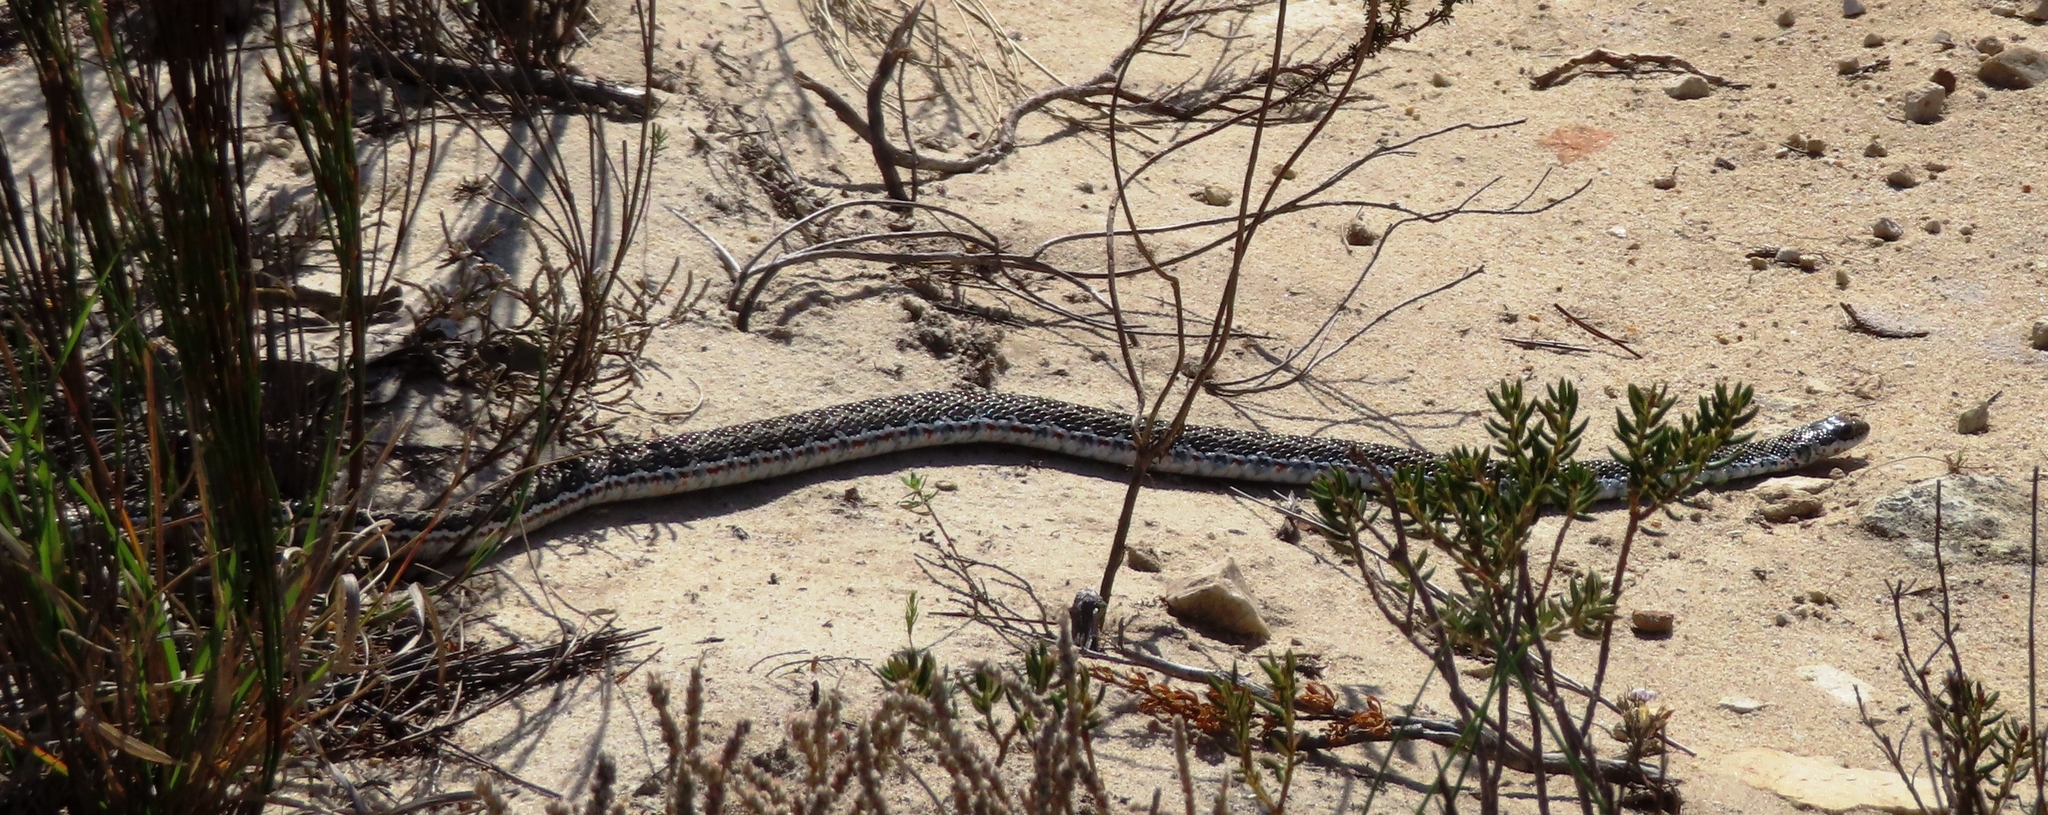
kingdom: Animalia
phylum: Chordata
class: Squamata
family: Psammophiidae
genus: Psammophylax
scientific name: Psammophylax rhombeatus
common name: Rhombic skaapsteker
